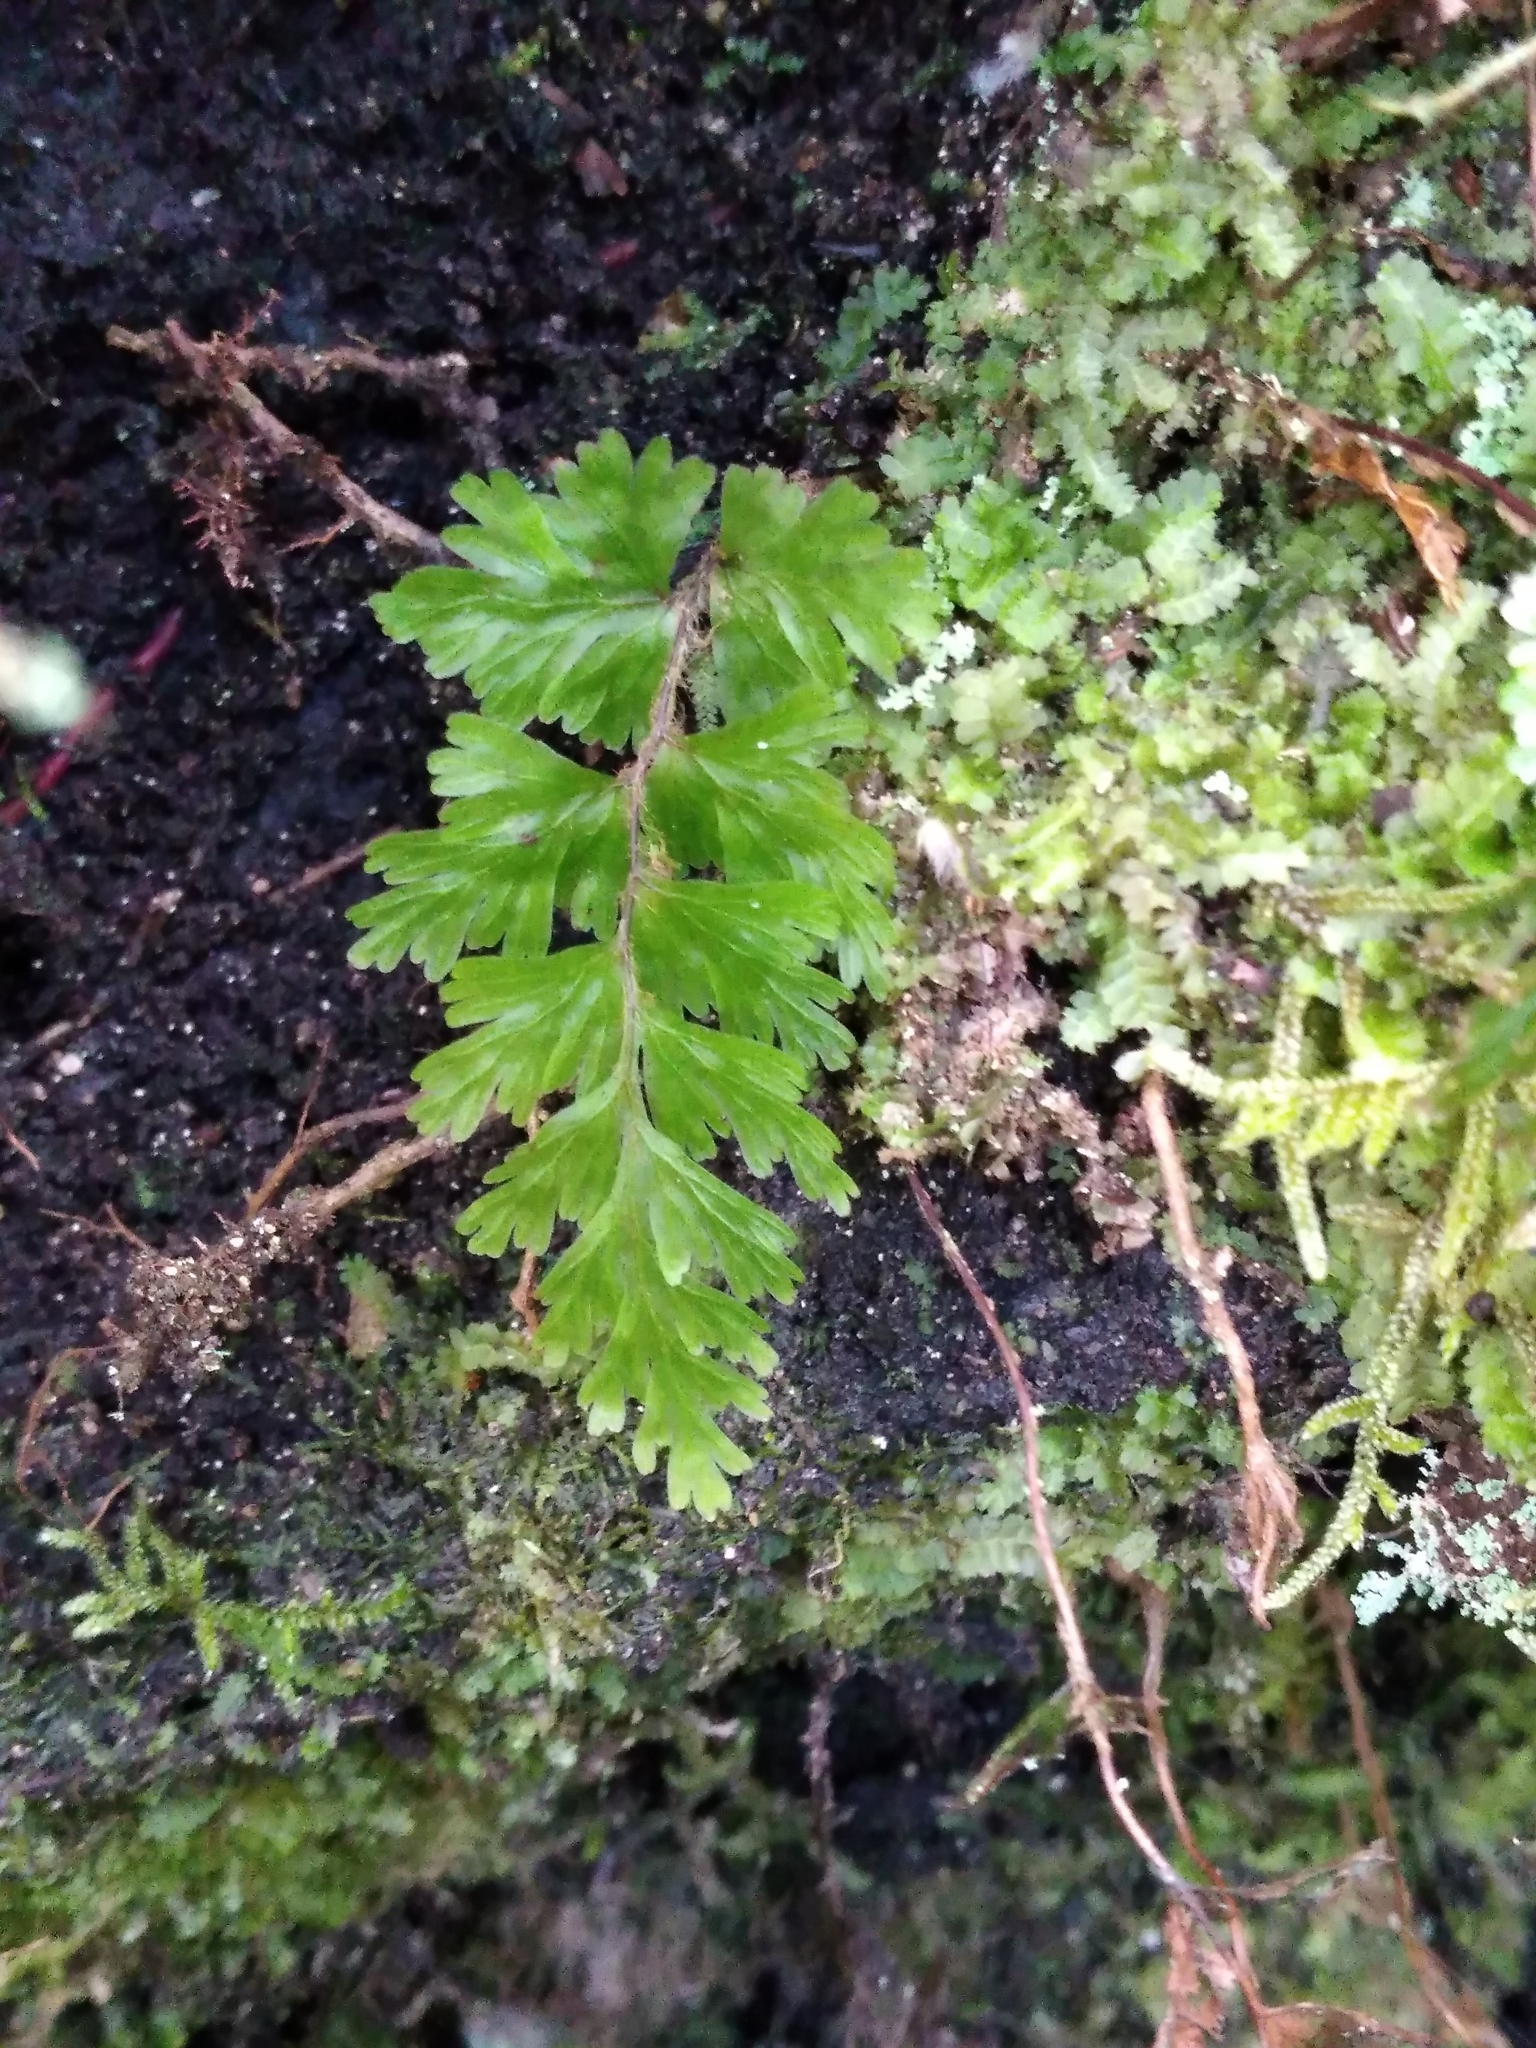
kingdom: Plantae
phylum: Tracheophyta
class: Polypodiopsida
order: Hymenophyllales
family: Hymenophyllaceae
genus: Hymenophyllum
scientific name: Hymenophyllum flabellatum
